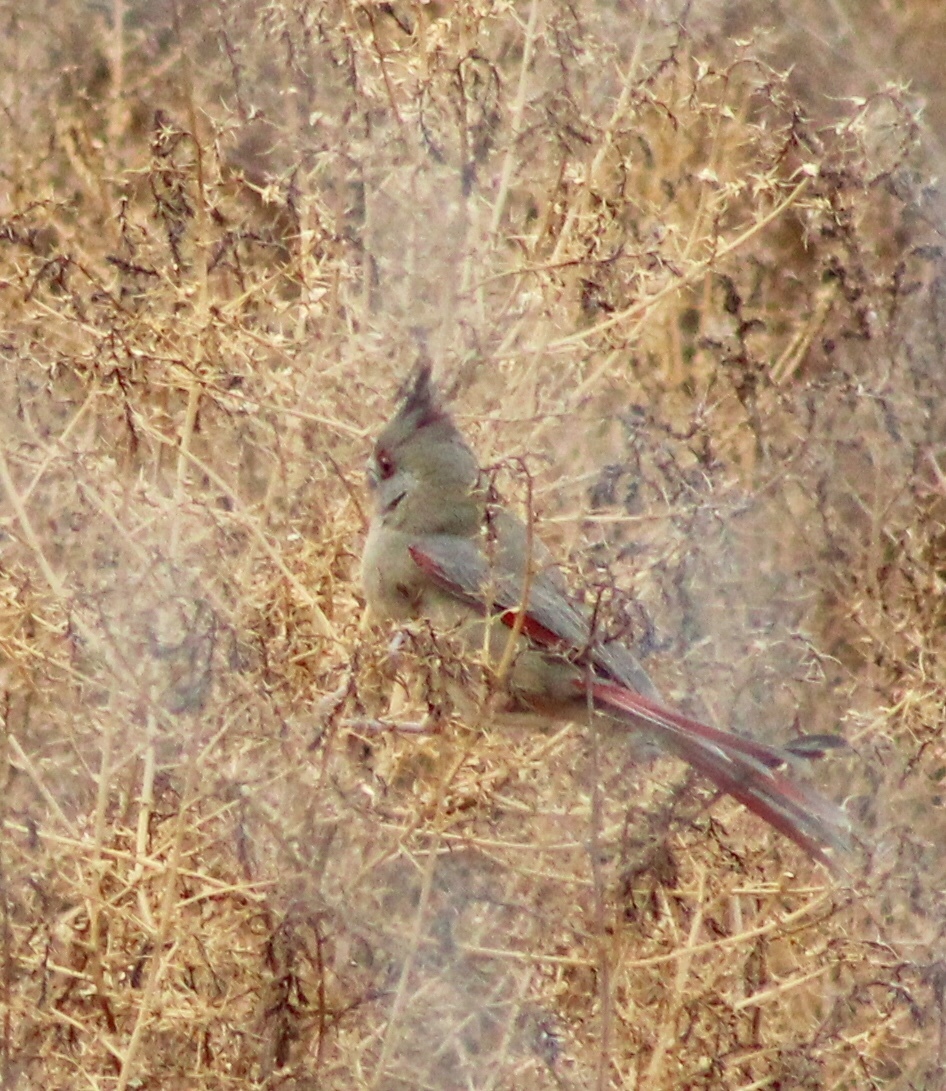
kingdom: Animalia
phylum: Chordata
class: Aves
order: Passeriformes
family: Cardinalidae
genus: Cardinalis
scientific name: Cardinalis sinuatus
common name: Pyrrhuloxia
